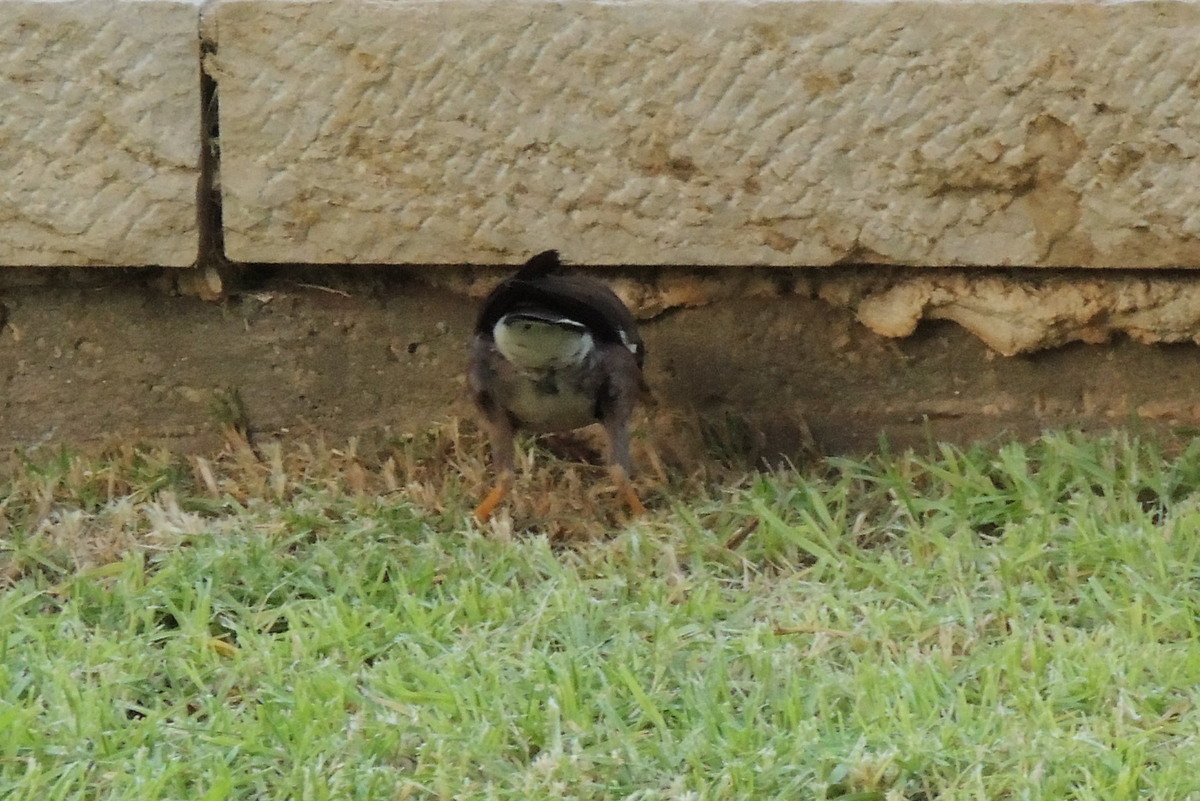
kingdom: Animalia
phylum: Chordata
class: Aves
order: Passeriformes
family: Sturnidae
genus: Acridotheres
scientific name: Acridotheres tristis
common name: Common myna
